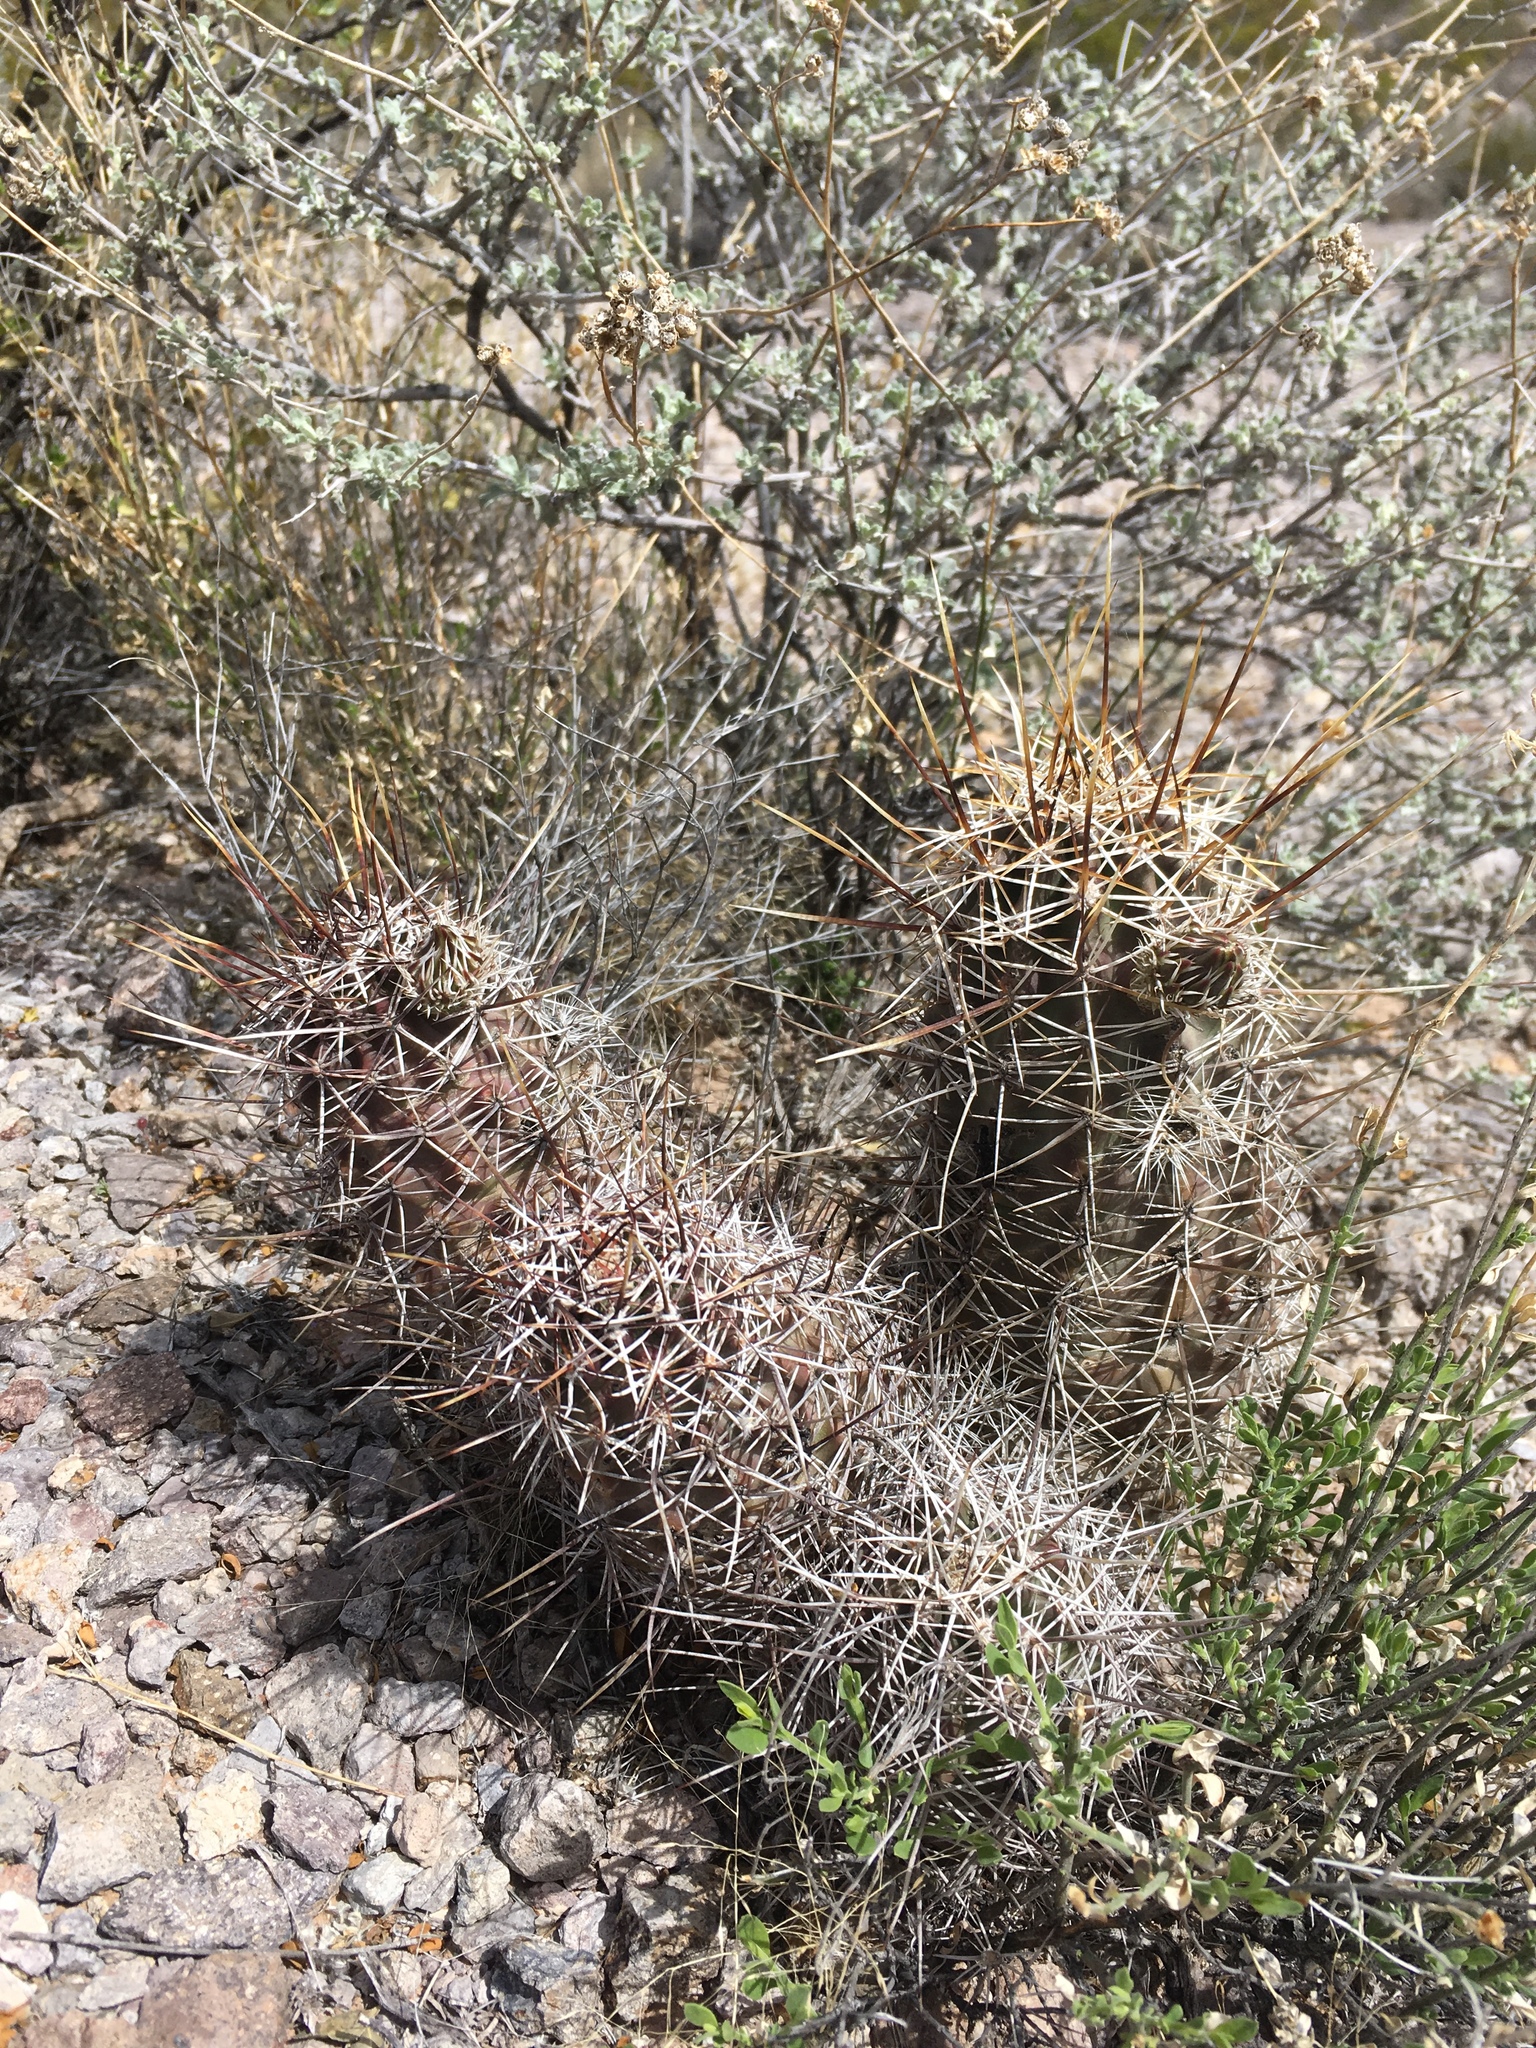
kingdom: Plantae
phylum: Tracheophyta
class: Magnoliopsida
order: Caryophyllales
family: Cactaceae
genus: Echinocereus
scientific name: Echinocereus fendleri
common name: Fendler's hedgehog cactus
